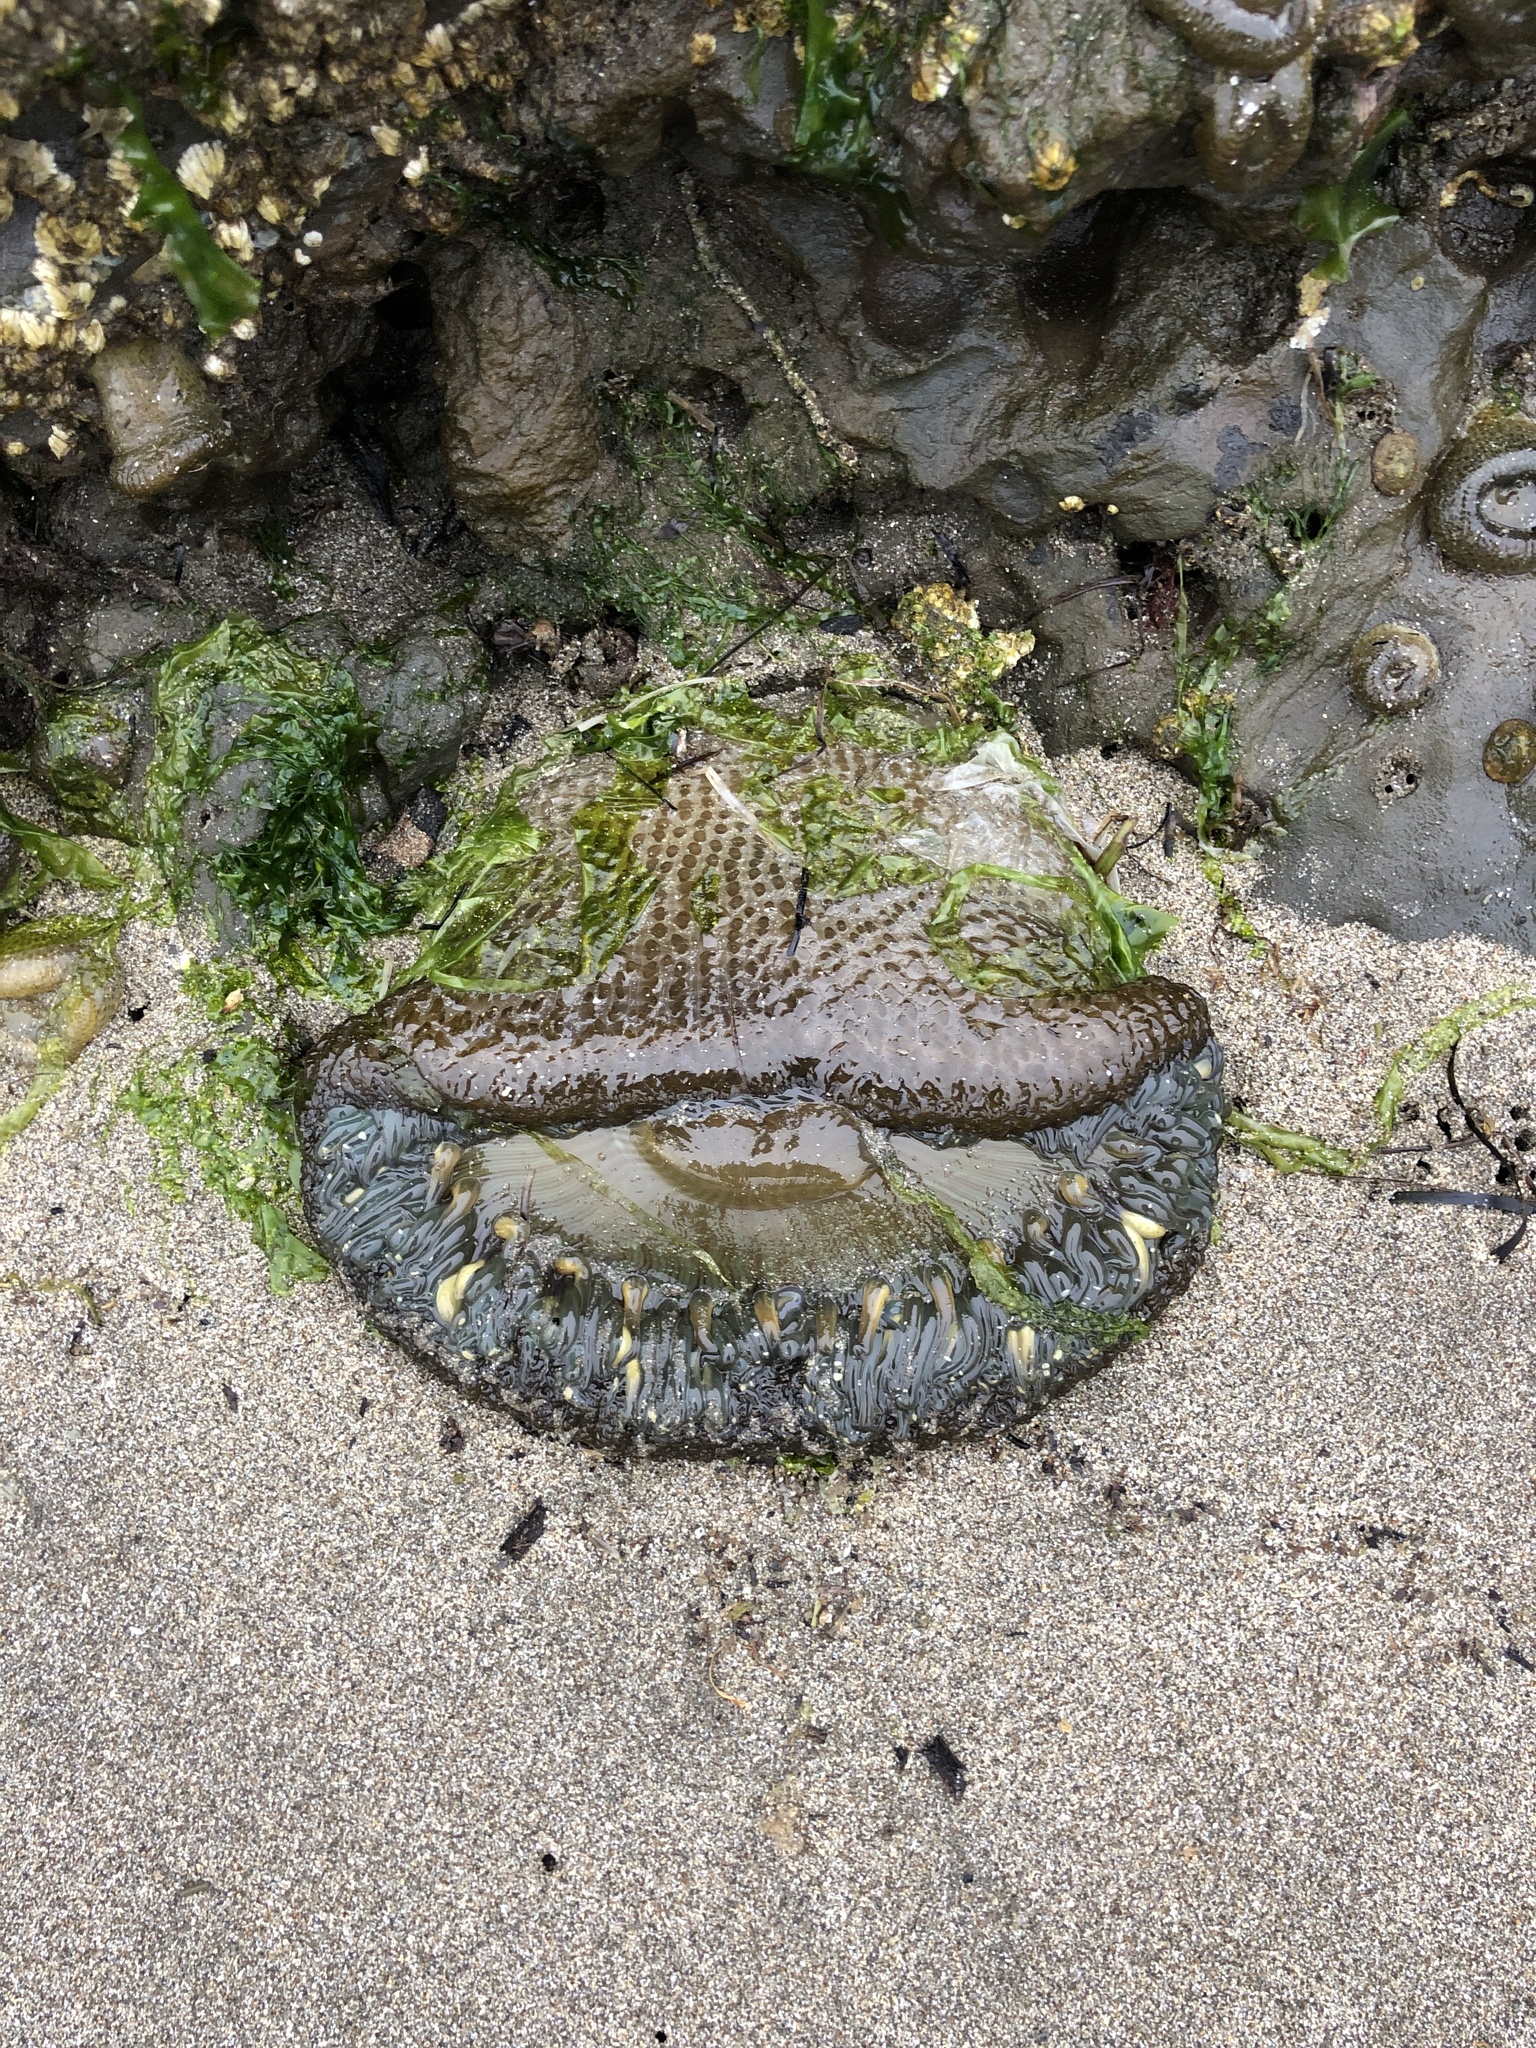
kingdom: Animalia
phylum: Cnidaria
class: Anthozoa
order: Actiniaria
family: Actiniidae
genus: Anthopleura
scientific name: Anthopleura sola
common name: Sun anemone
